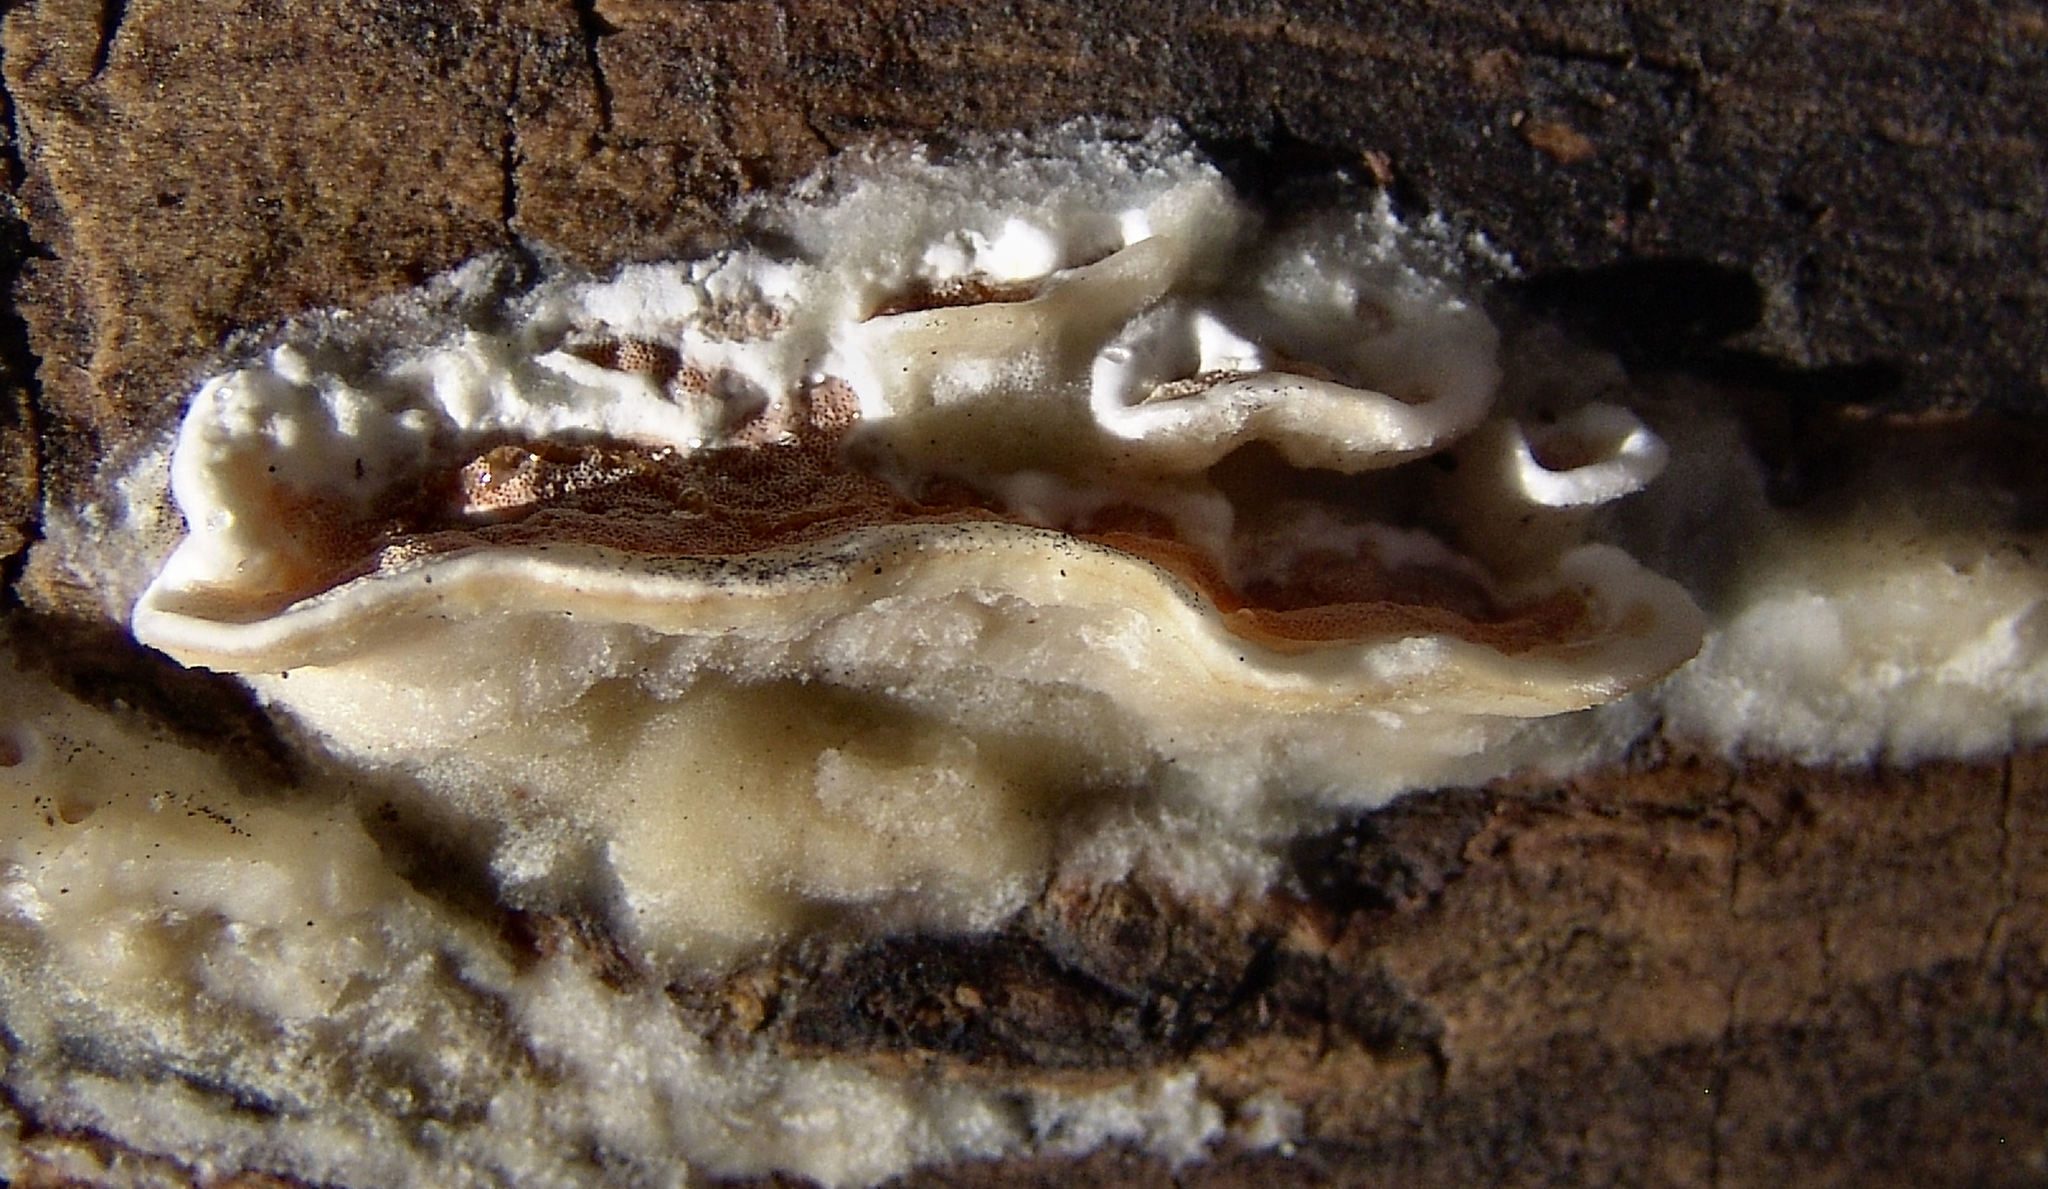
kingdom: Fungi
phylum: Basidiomycota
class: Agaricomycetes
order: Polyporales
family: Irpicaceae
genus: Vitreoporus
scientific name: Vitreoporus dichrous
